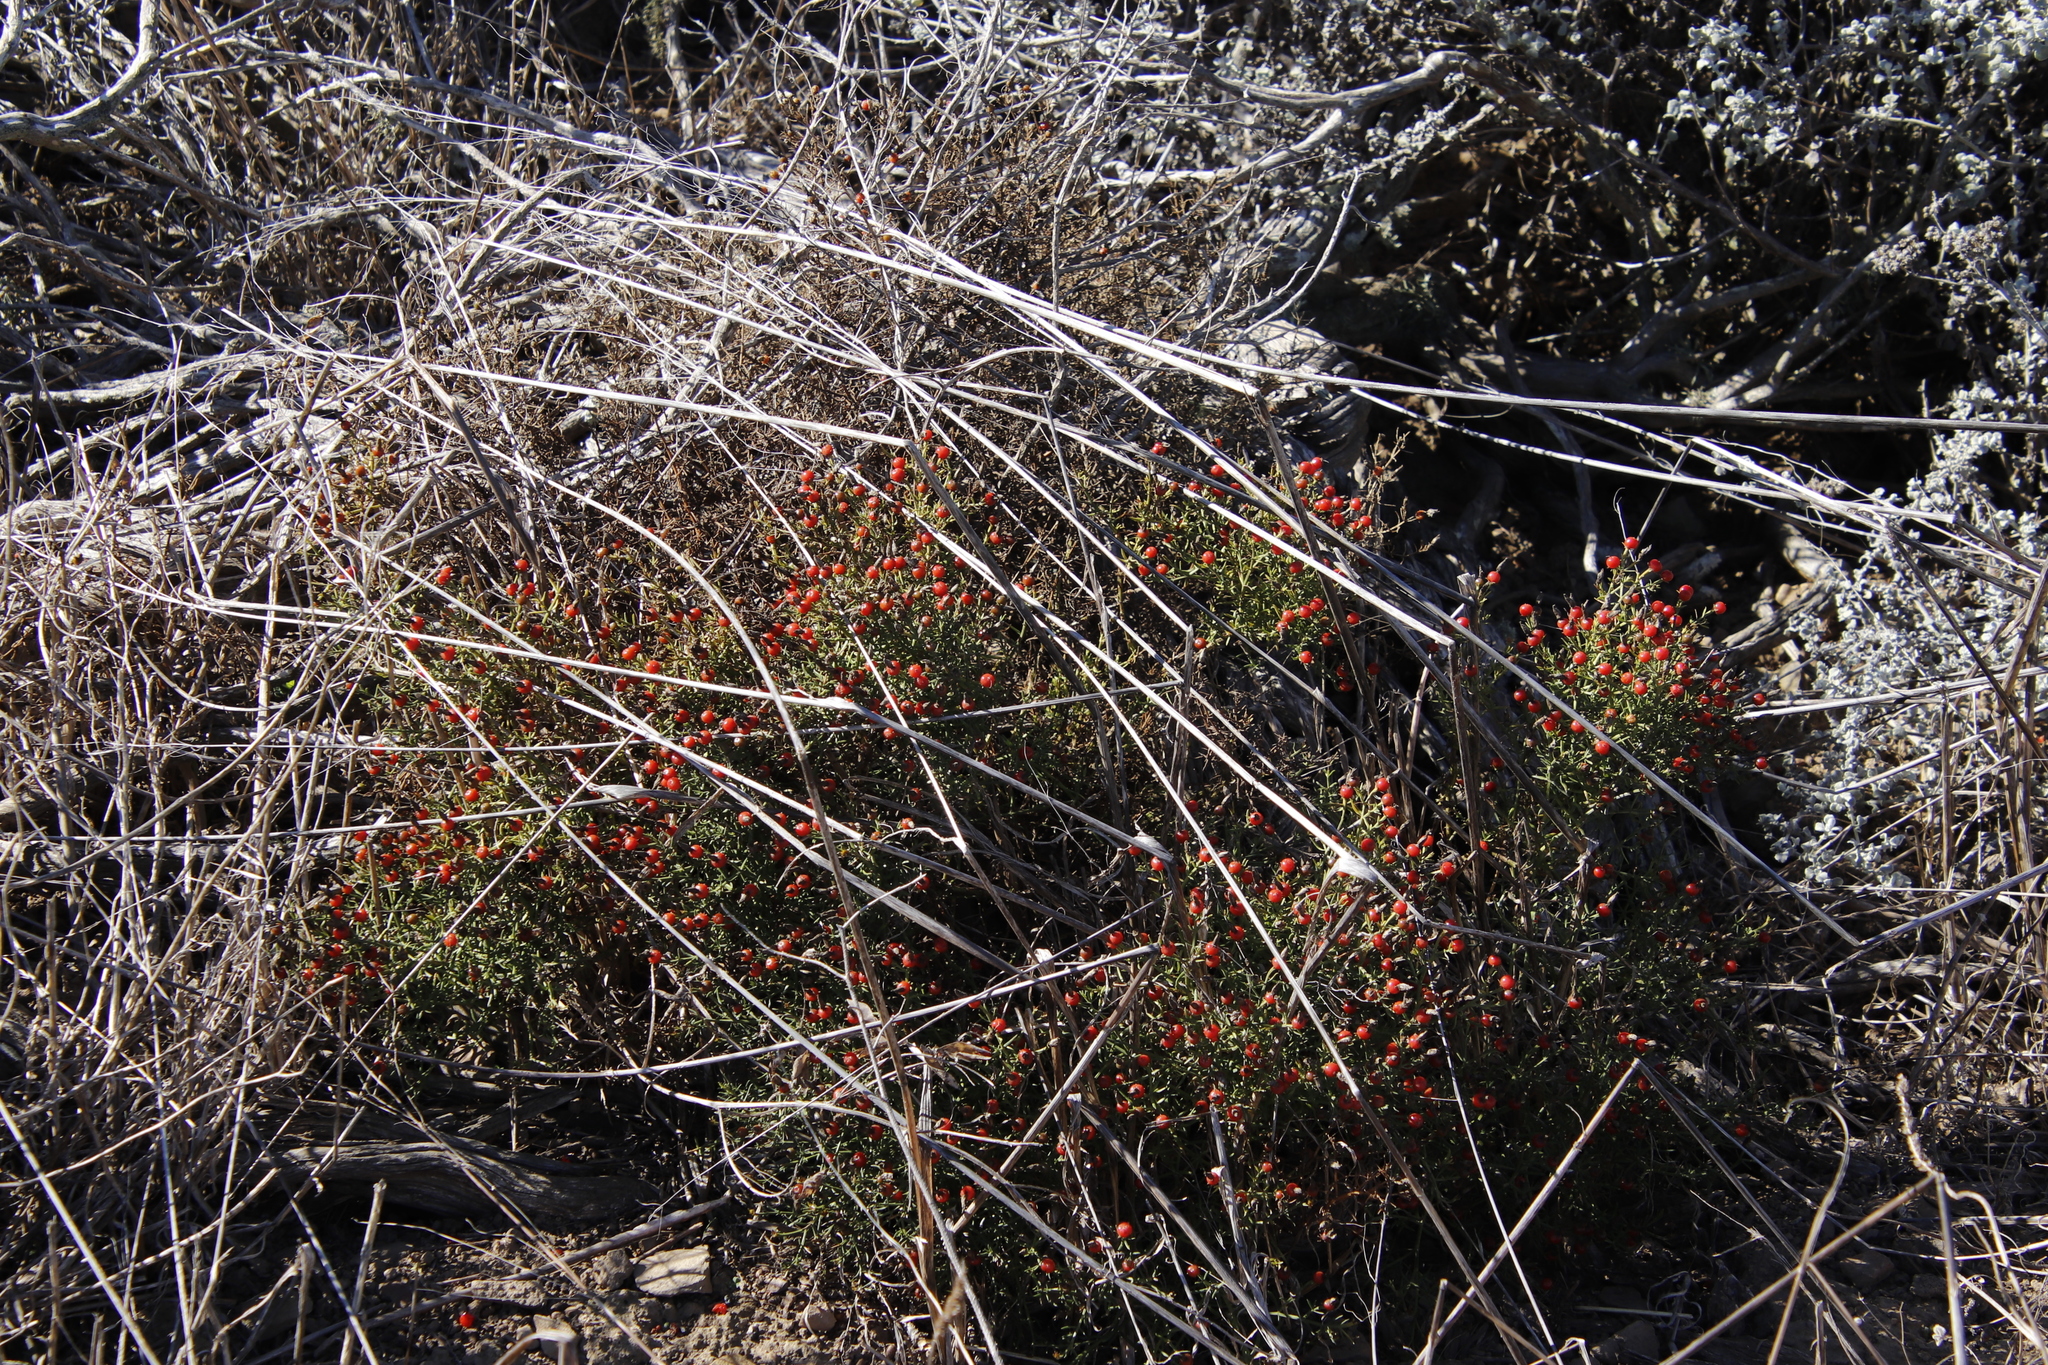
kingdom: Plantae
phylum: Tracheophyta
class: Magnoliopsida
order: Gentianales
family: Gentianaceae
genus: Chironia
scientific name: Chironia baccifera
